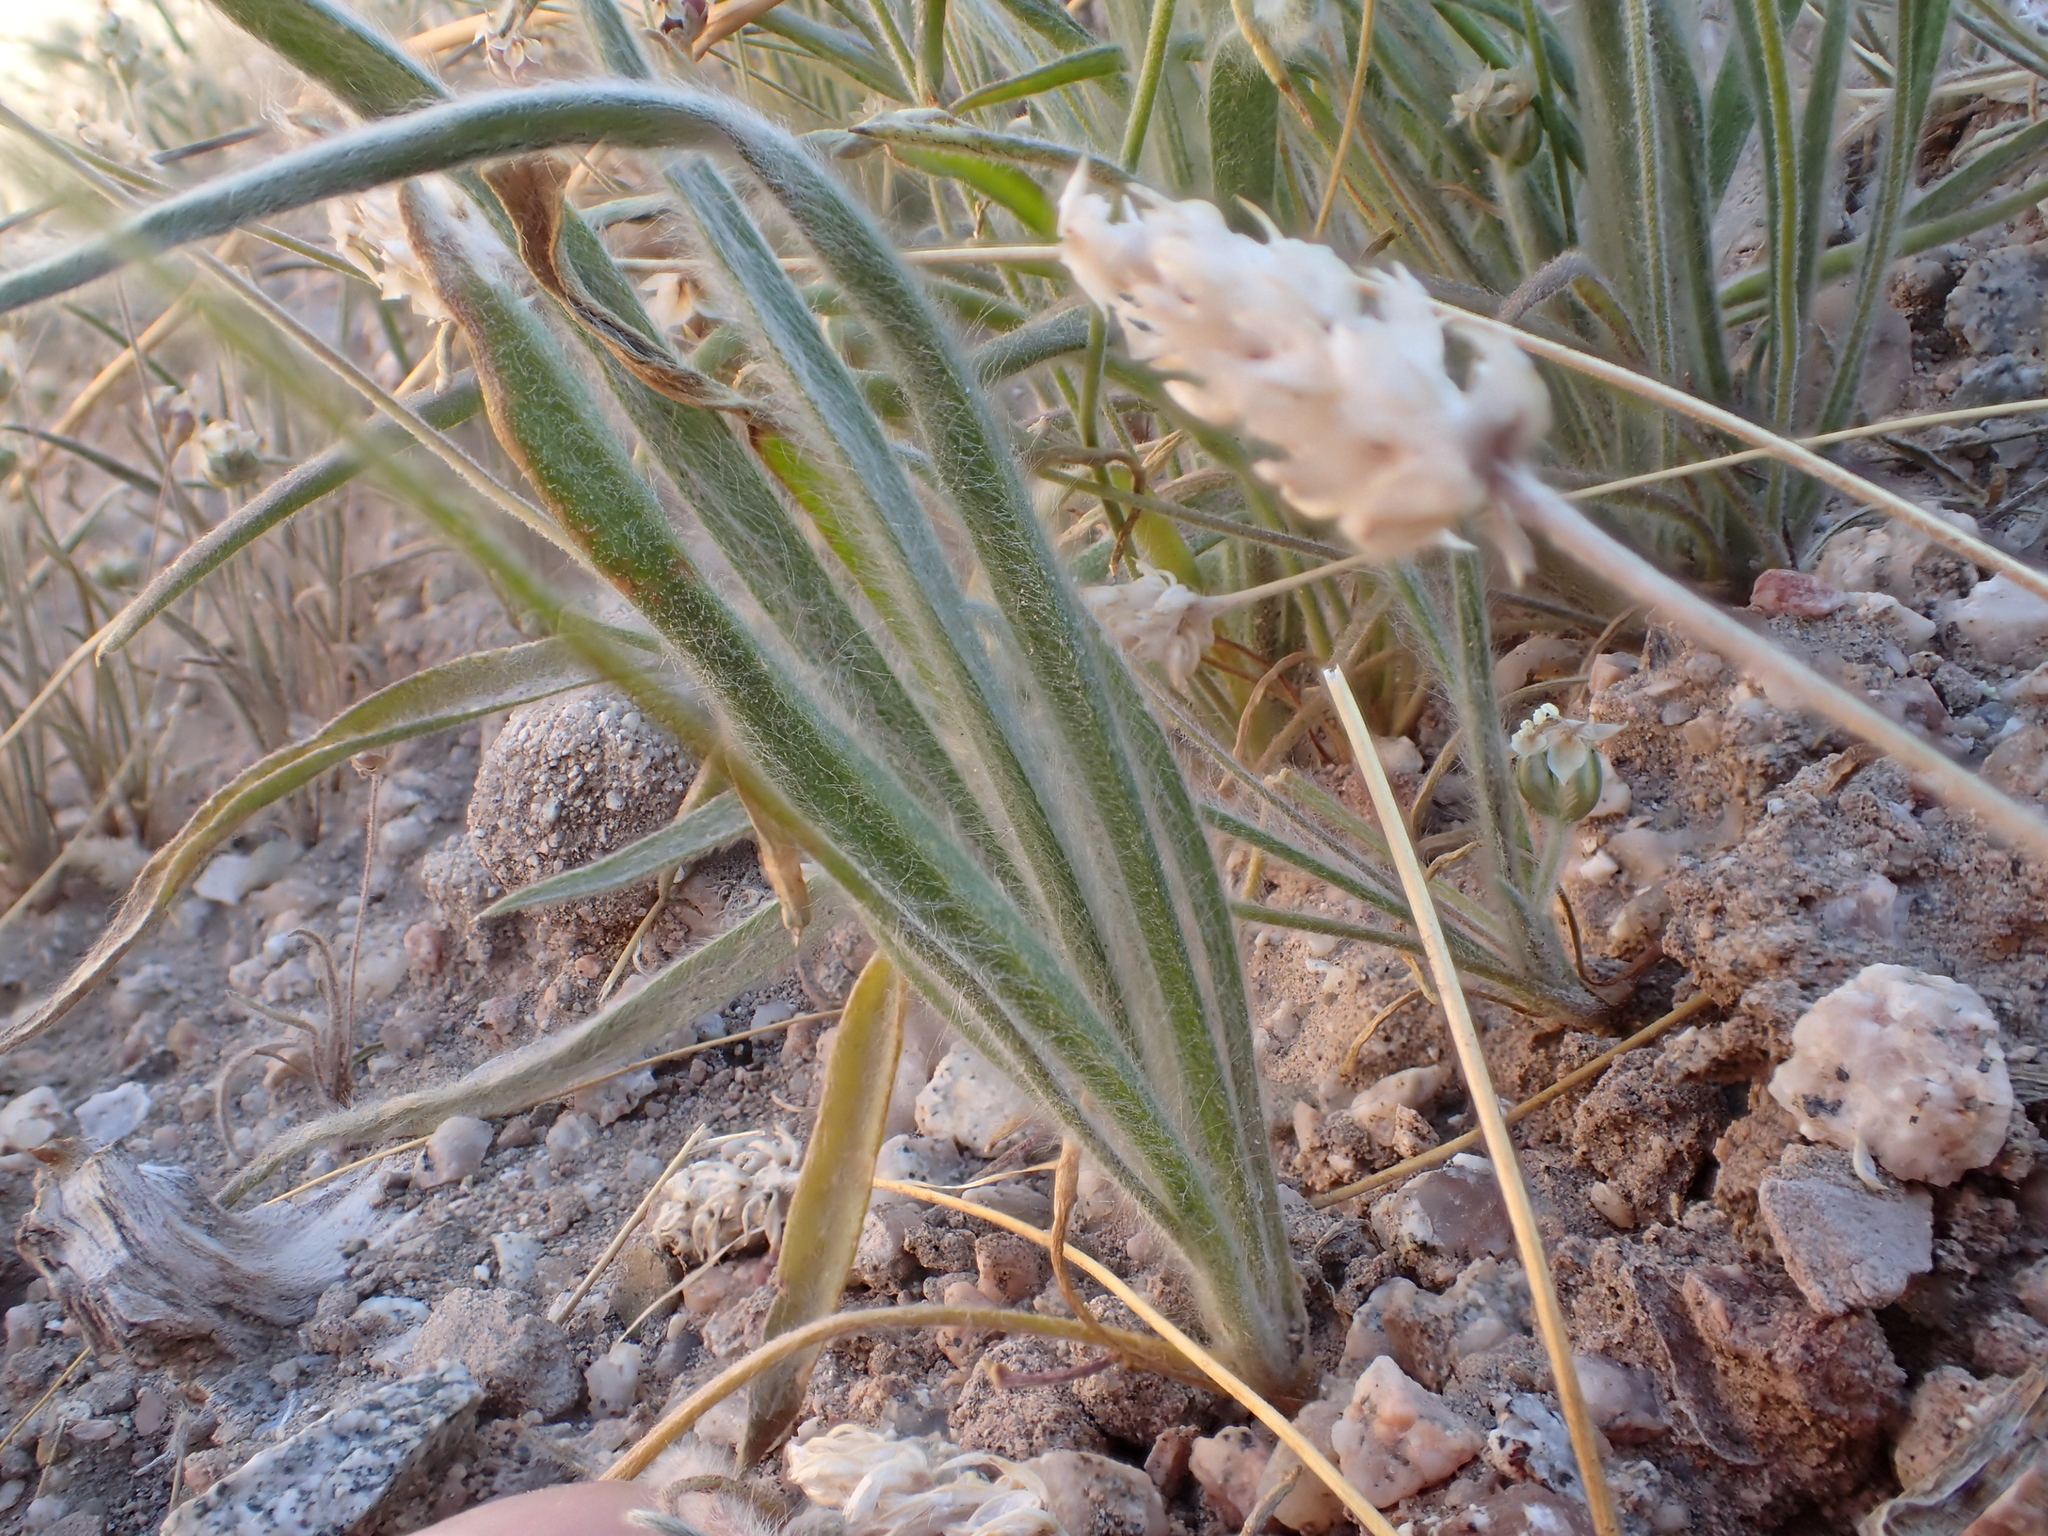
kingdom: Plantae
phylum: Tracheophyta
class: Magnoliopsida
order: Lamiales
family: Plantaginaceae
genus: Plantago
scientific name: Plantago ovata
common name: Blond plantain
